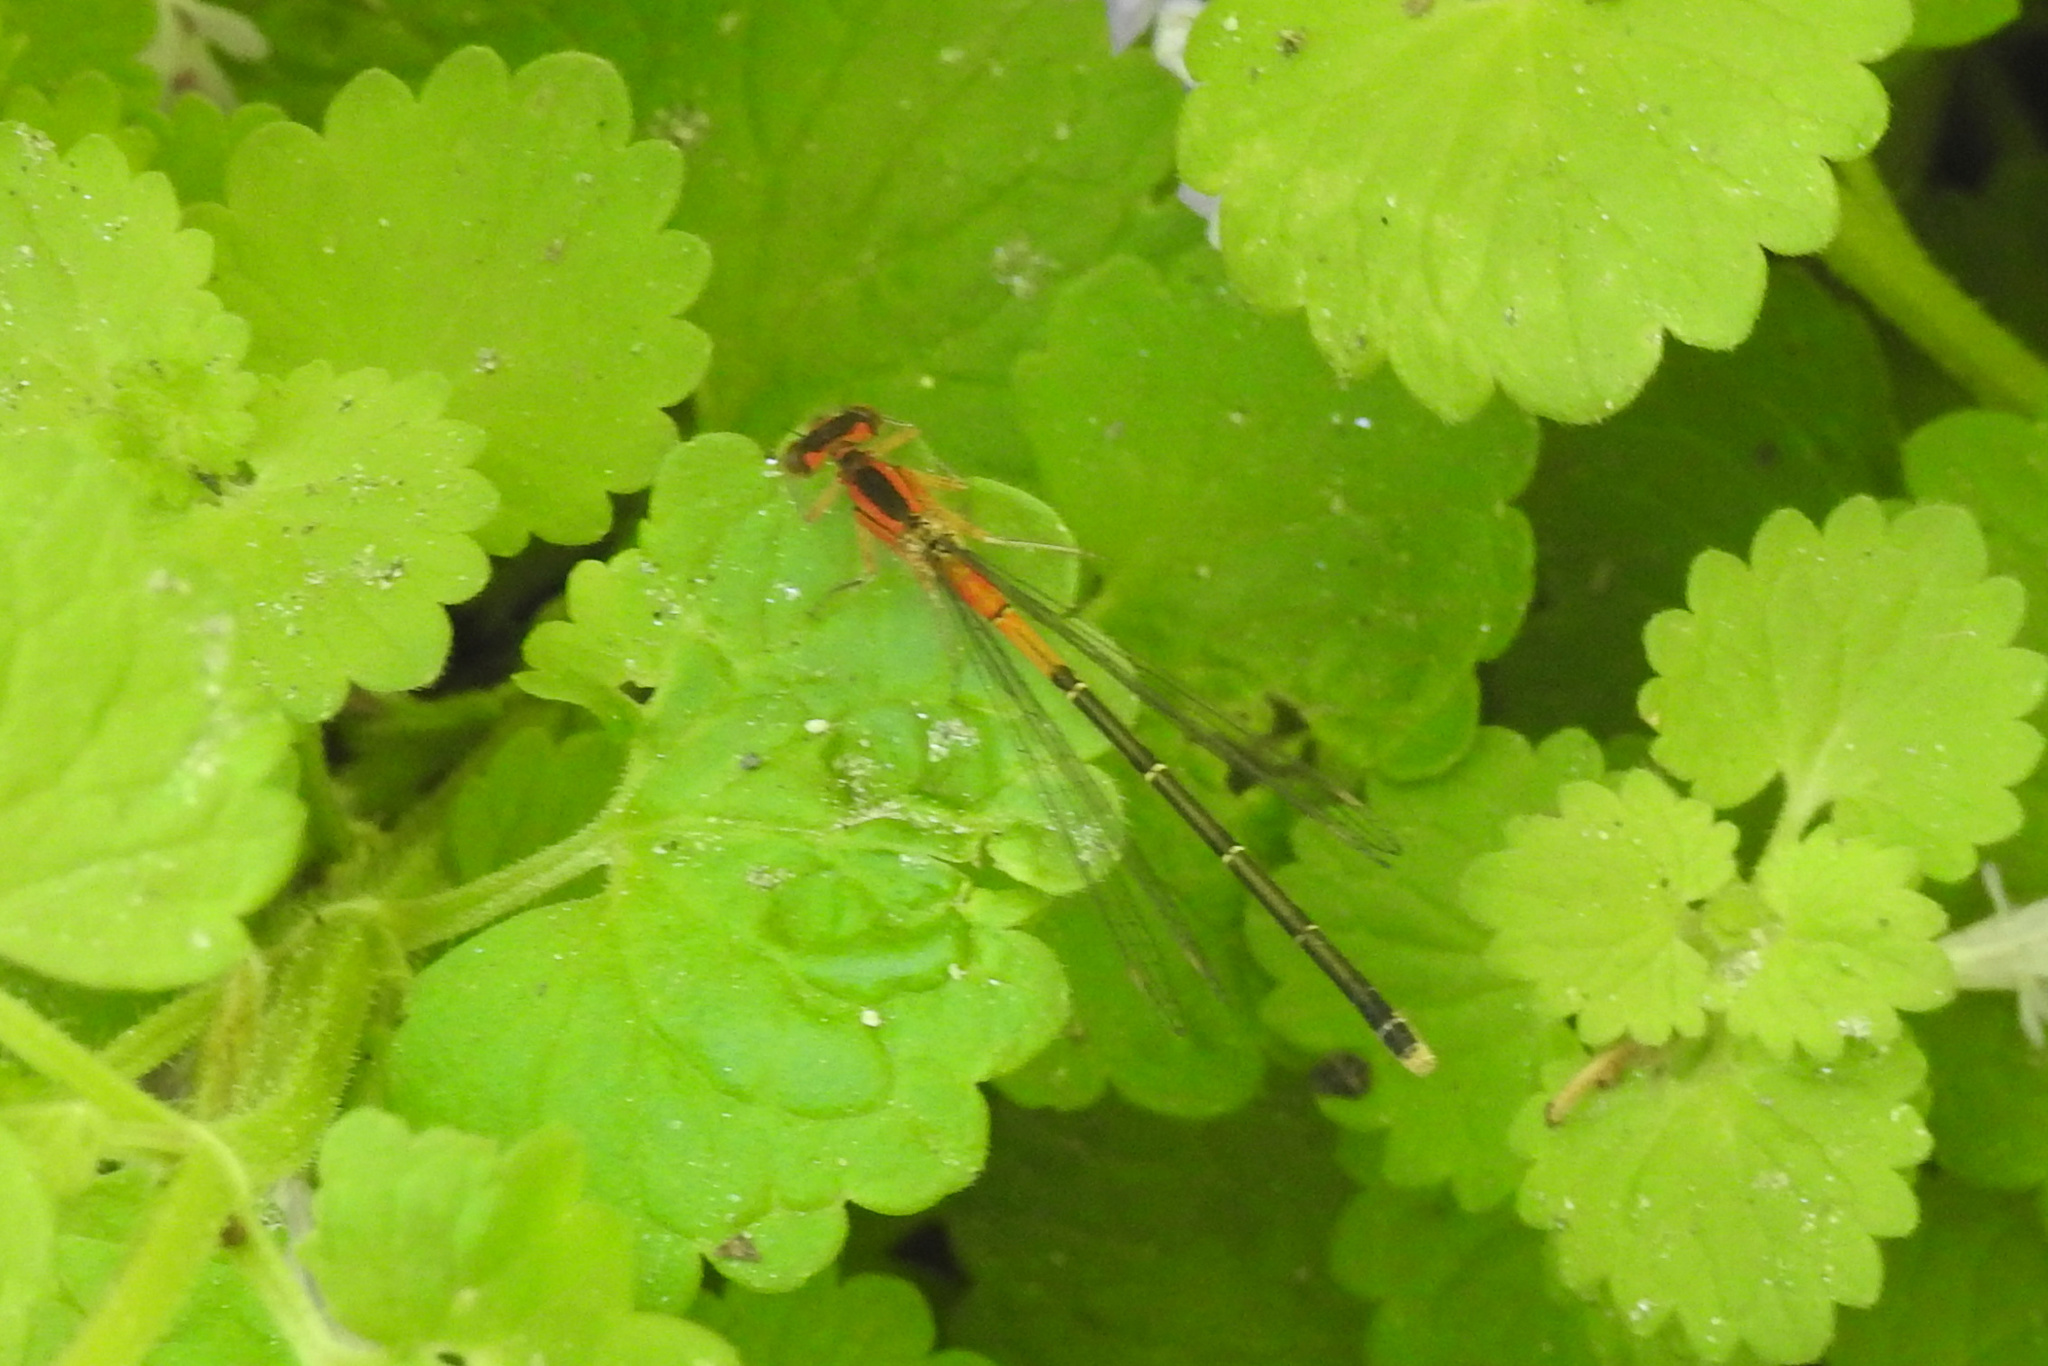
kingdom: Animalia
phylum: Arthropoda
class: Insecta
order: Odonata
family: Coenagrionidae
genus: Ischnura
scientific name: Ischnura verticalis
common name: Eastern forktail
